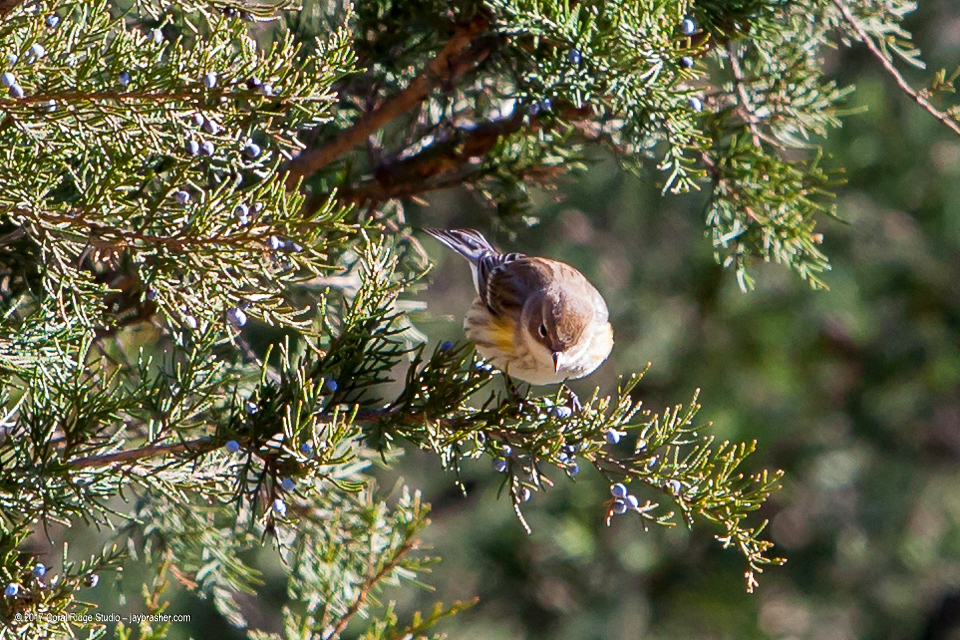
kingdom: Animalia
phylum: Chordata
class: Aves
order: Passeriformes
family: Parulidae
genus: Setophaga
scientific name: Setophaga coronata
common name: Myrtle warbler
